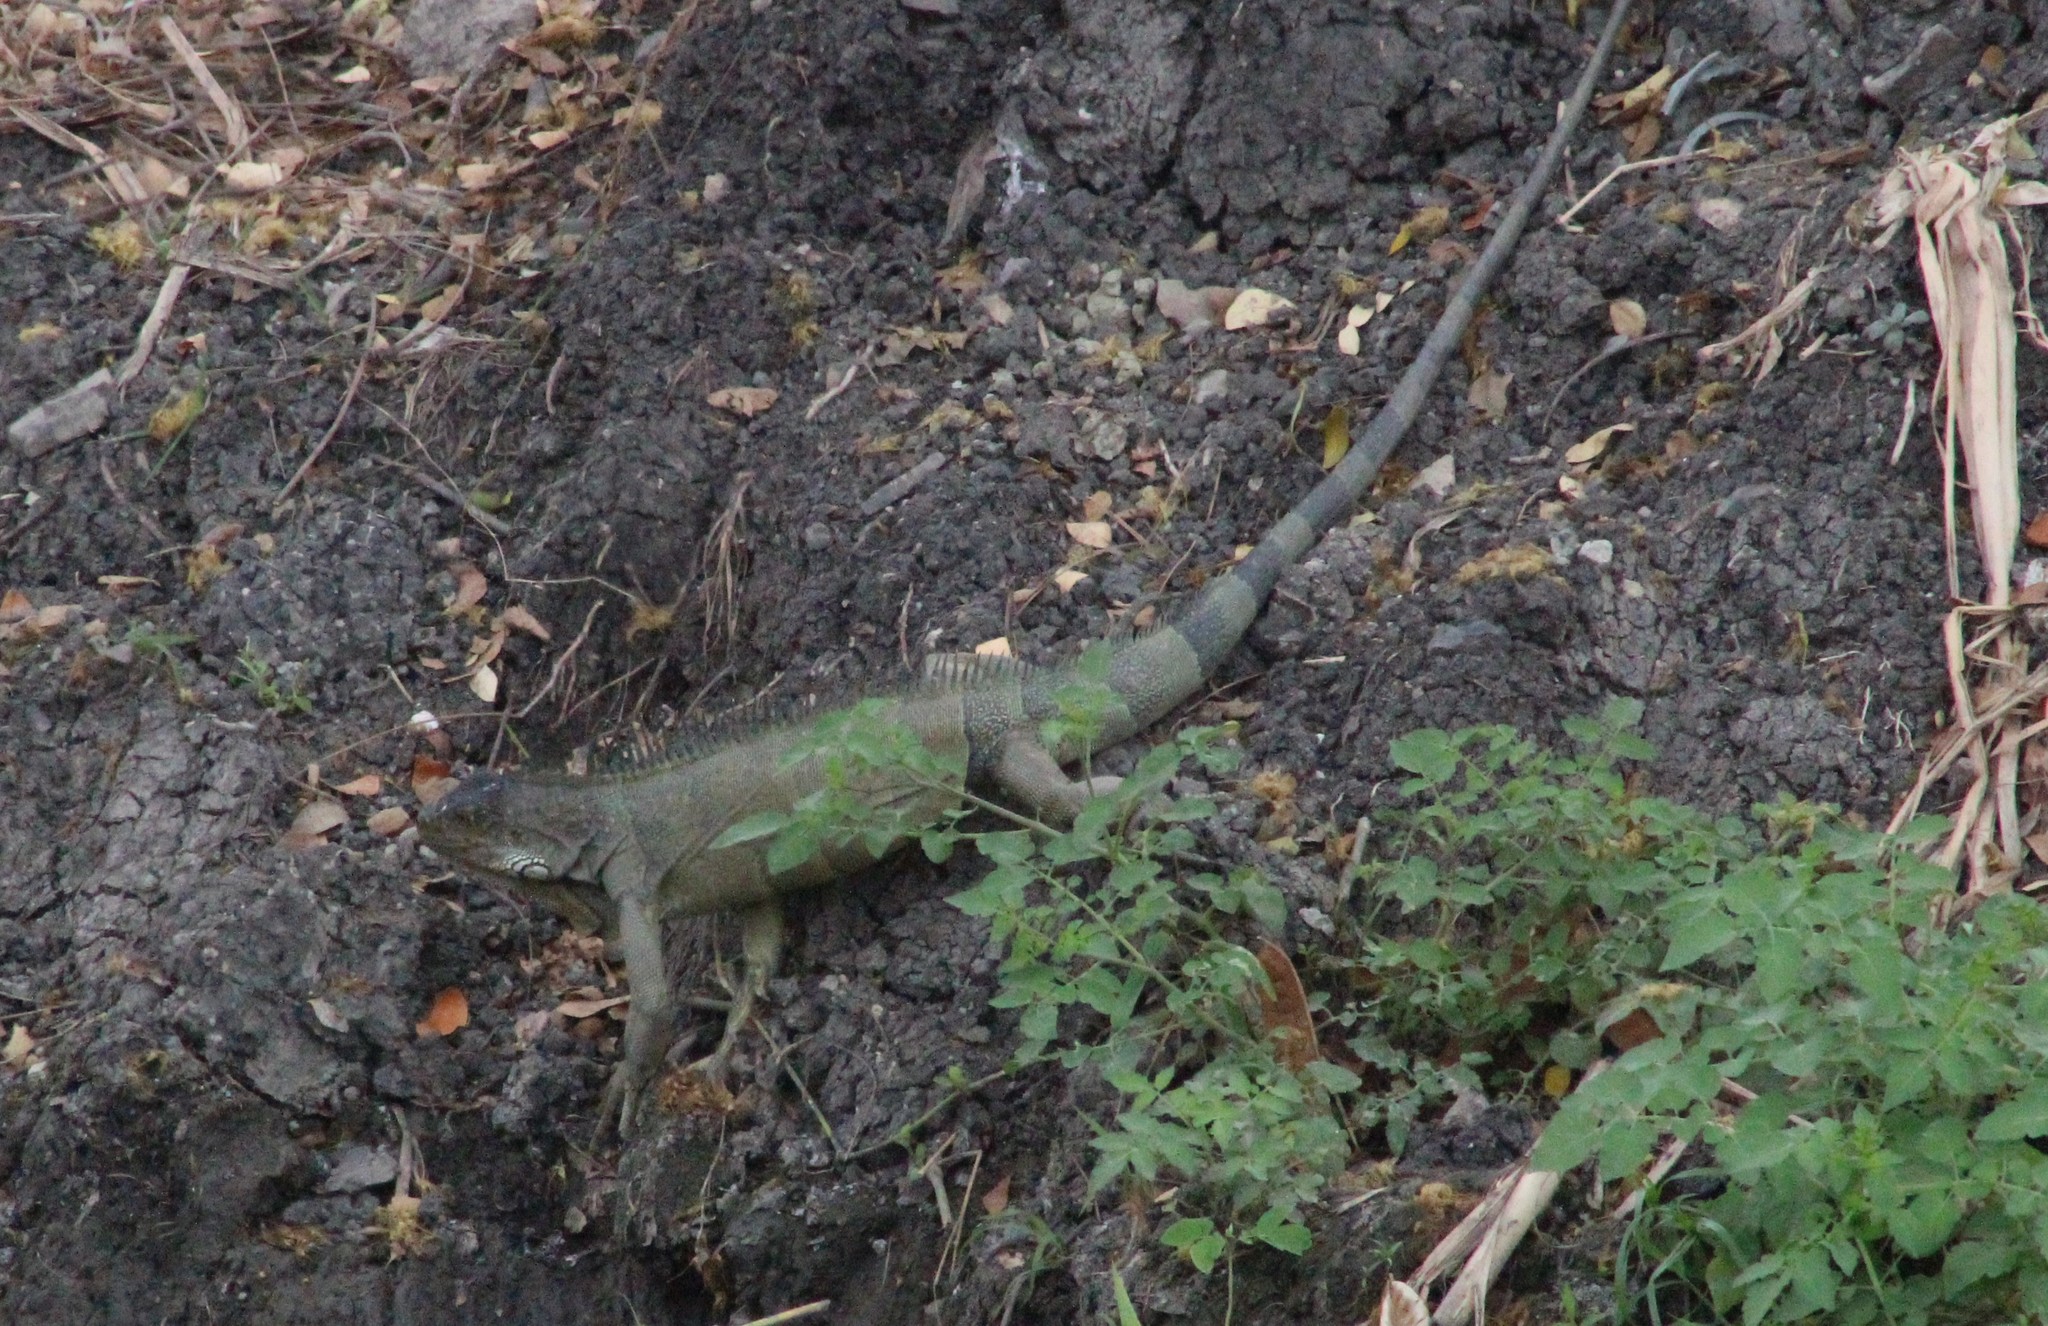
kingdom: Animalia
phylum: Chordata
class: Squamata
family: Iguanidae
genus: Iguana
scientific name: Iguana iguana
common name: Green iguana
